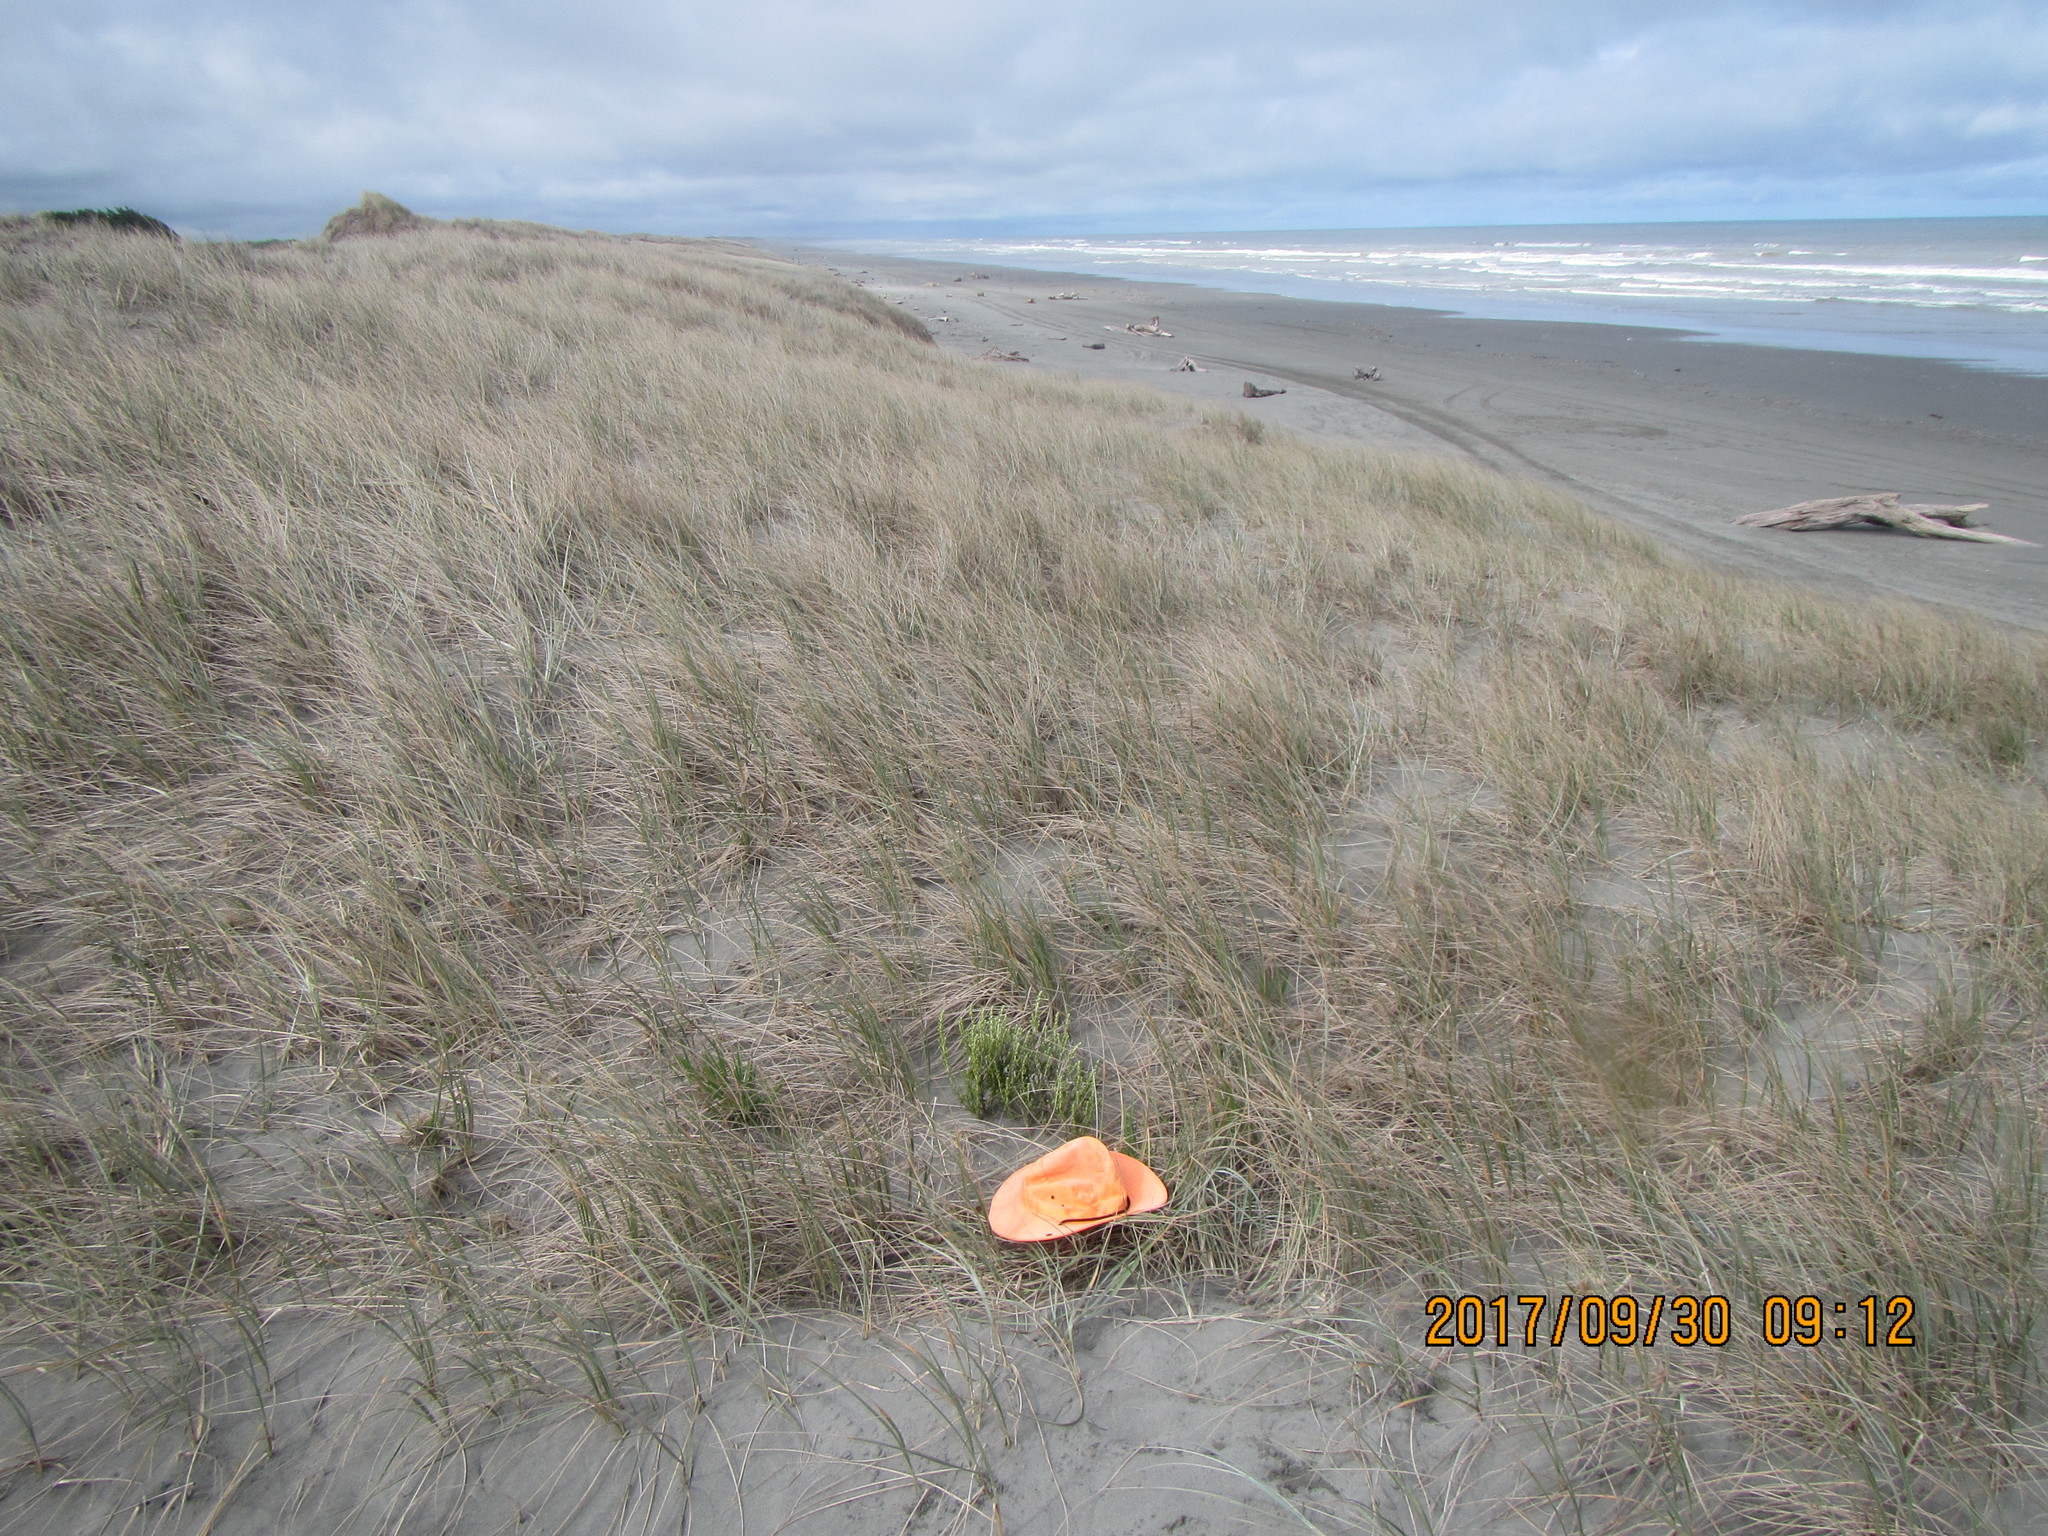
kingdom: Animalia
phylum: Arthropoda
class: Arachnida
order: Araneae
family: Theridiidae
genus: Latrodectus
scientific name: Latrodectus katipo
